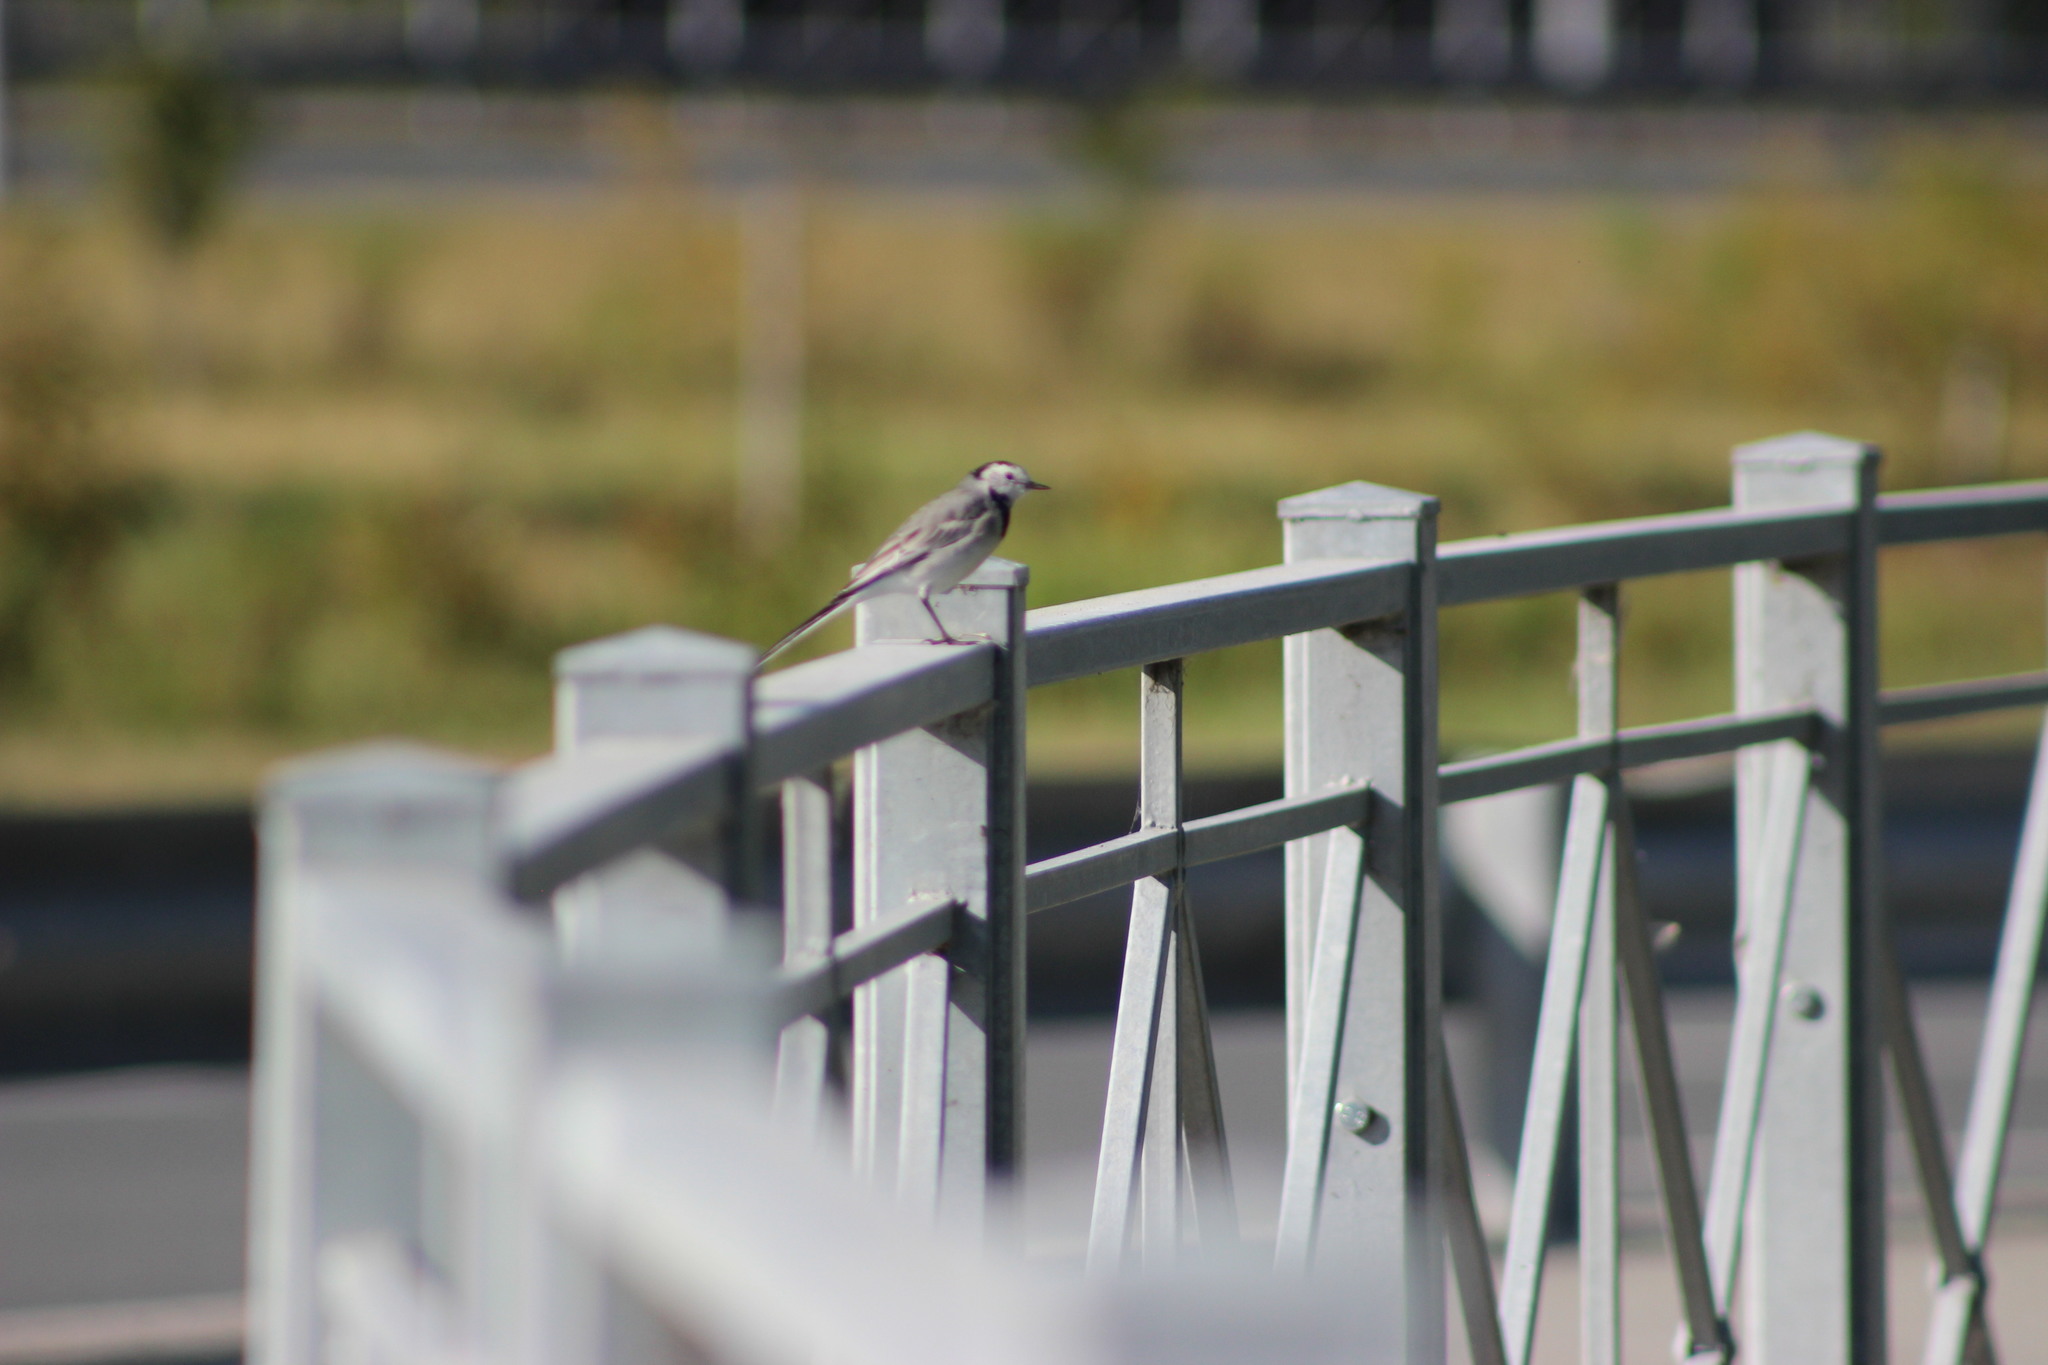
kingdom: Animalia
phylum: Chordata
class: Aves
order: Passeriformes
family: Motacillidae
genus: Motacilla
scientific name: Motacilla alba
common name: White wagtail
